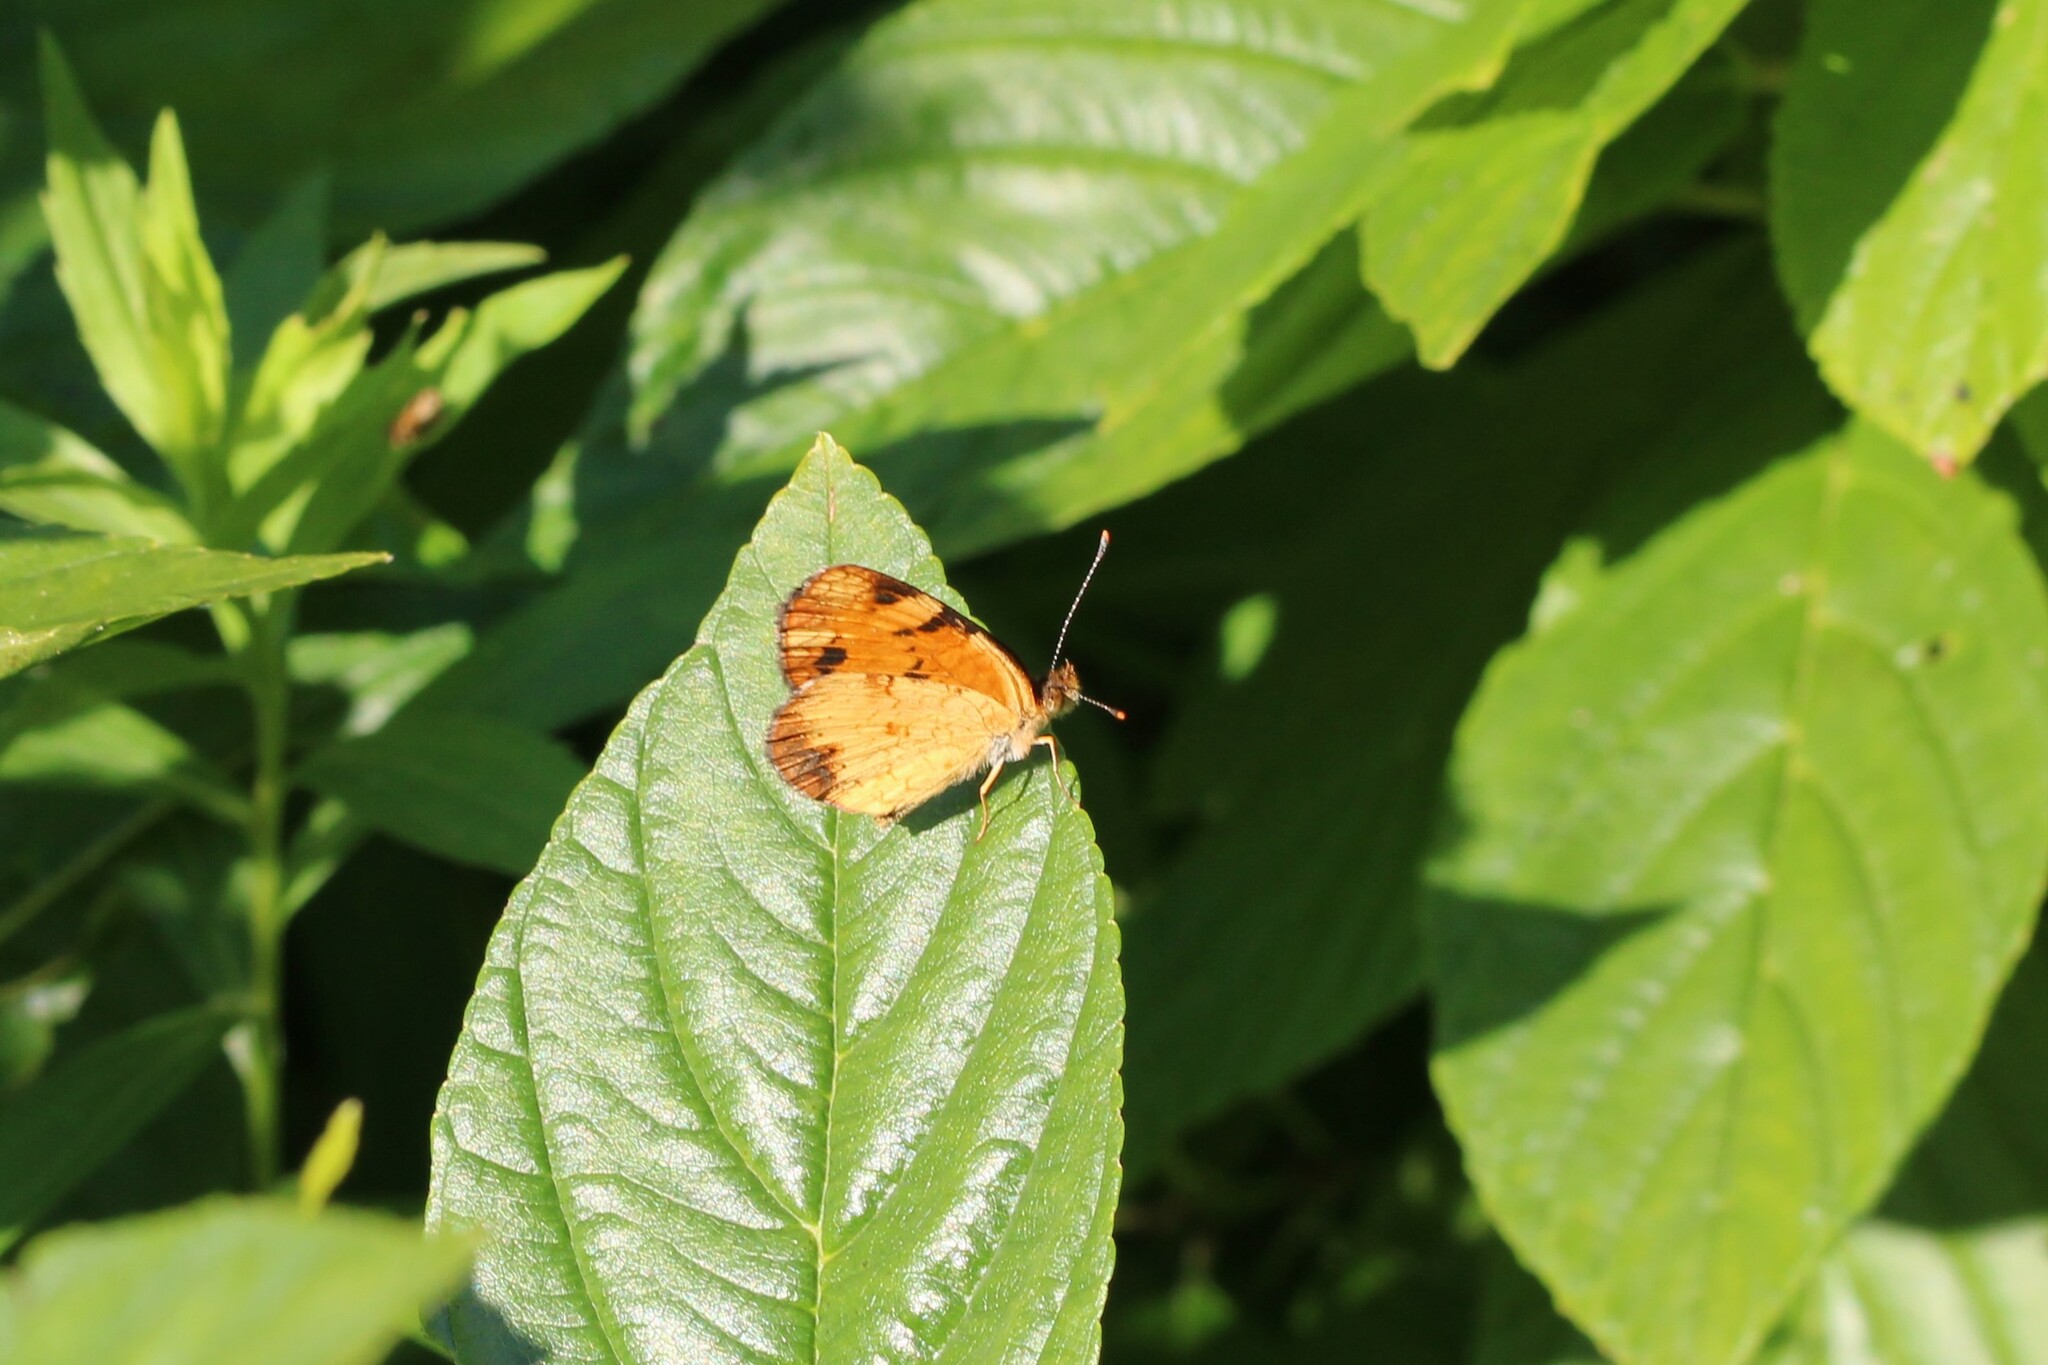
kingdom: Animalia
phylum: Arthropoda
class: Insecta
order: Lepidoptera
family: Nymphalidae
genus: Phyciodes
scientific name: Phyciodes tharos
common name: Pearl crescent
